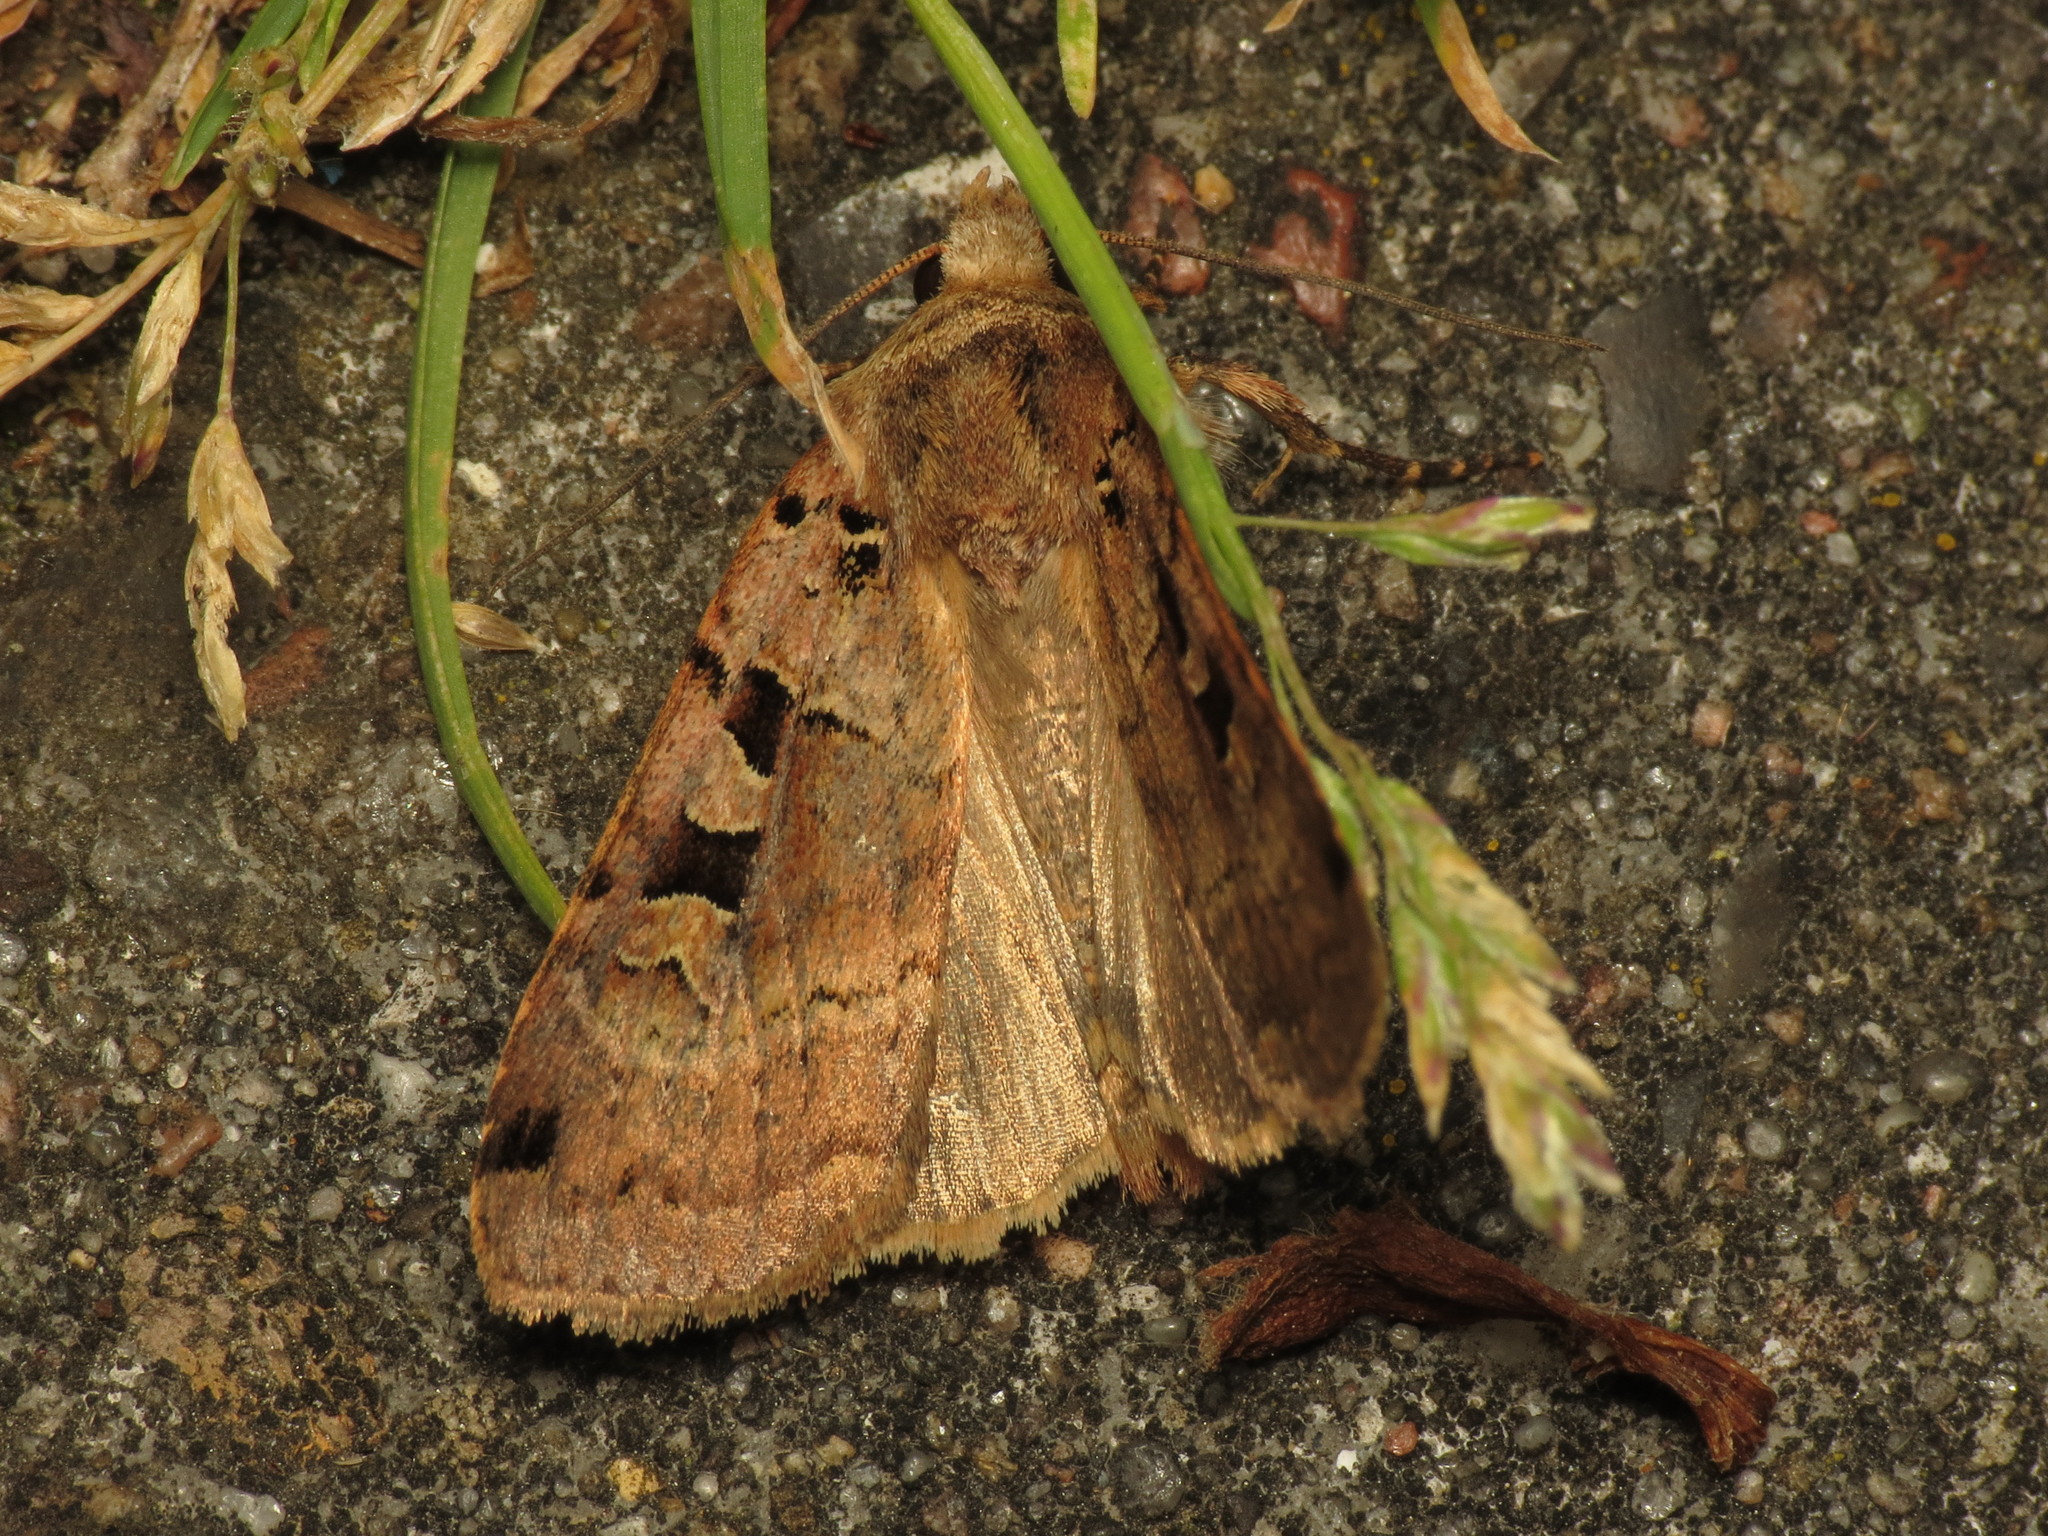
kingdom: Animalia
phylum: Arthropoda
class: Insecta
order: Lepidoptera
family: Noctuidae
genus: Xestia
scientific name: Xestia triangulum
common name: Double square-spot
